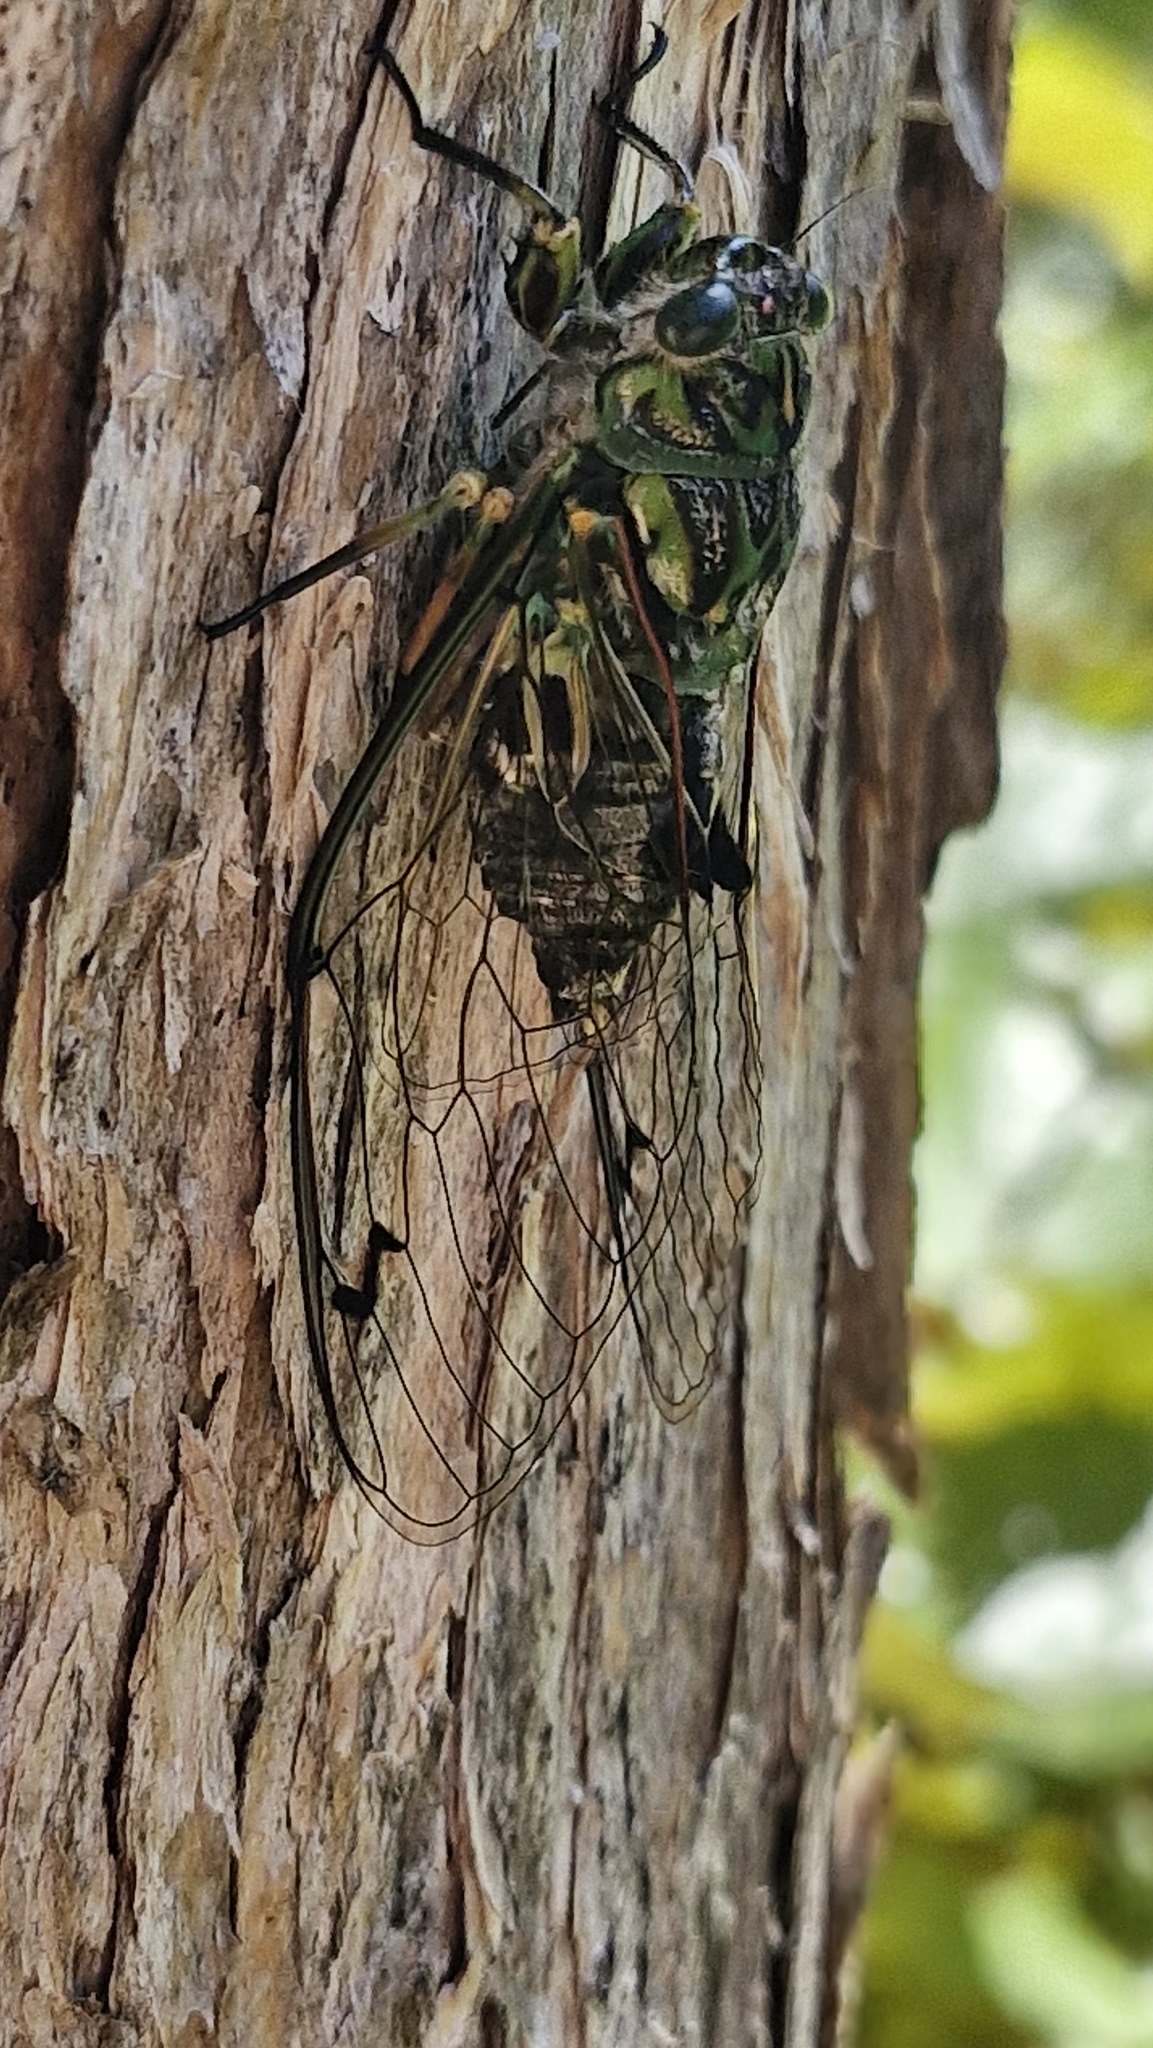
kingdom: Animalia
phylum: Arthropoda
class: Insecta
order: Hemiptera
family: Cicadidae
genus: Amphipsalta
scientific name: Amphipsalta zelandica
